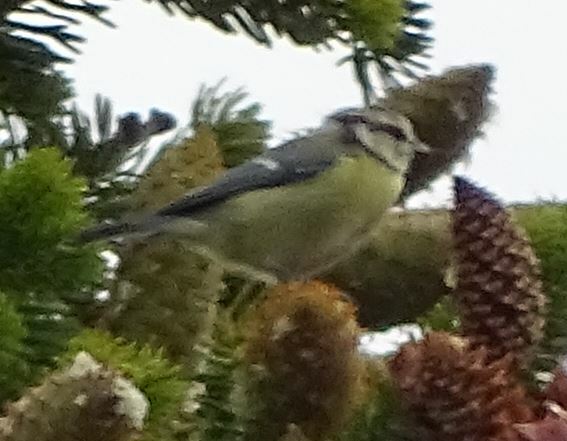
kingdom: Animalia
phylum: Chordata
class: Aves
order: Passeriformes
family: Paridae
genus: Cyanistes
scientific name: Cyanistes caeruleus
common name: Eurasian blue tit
